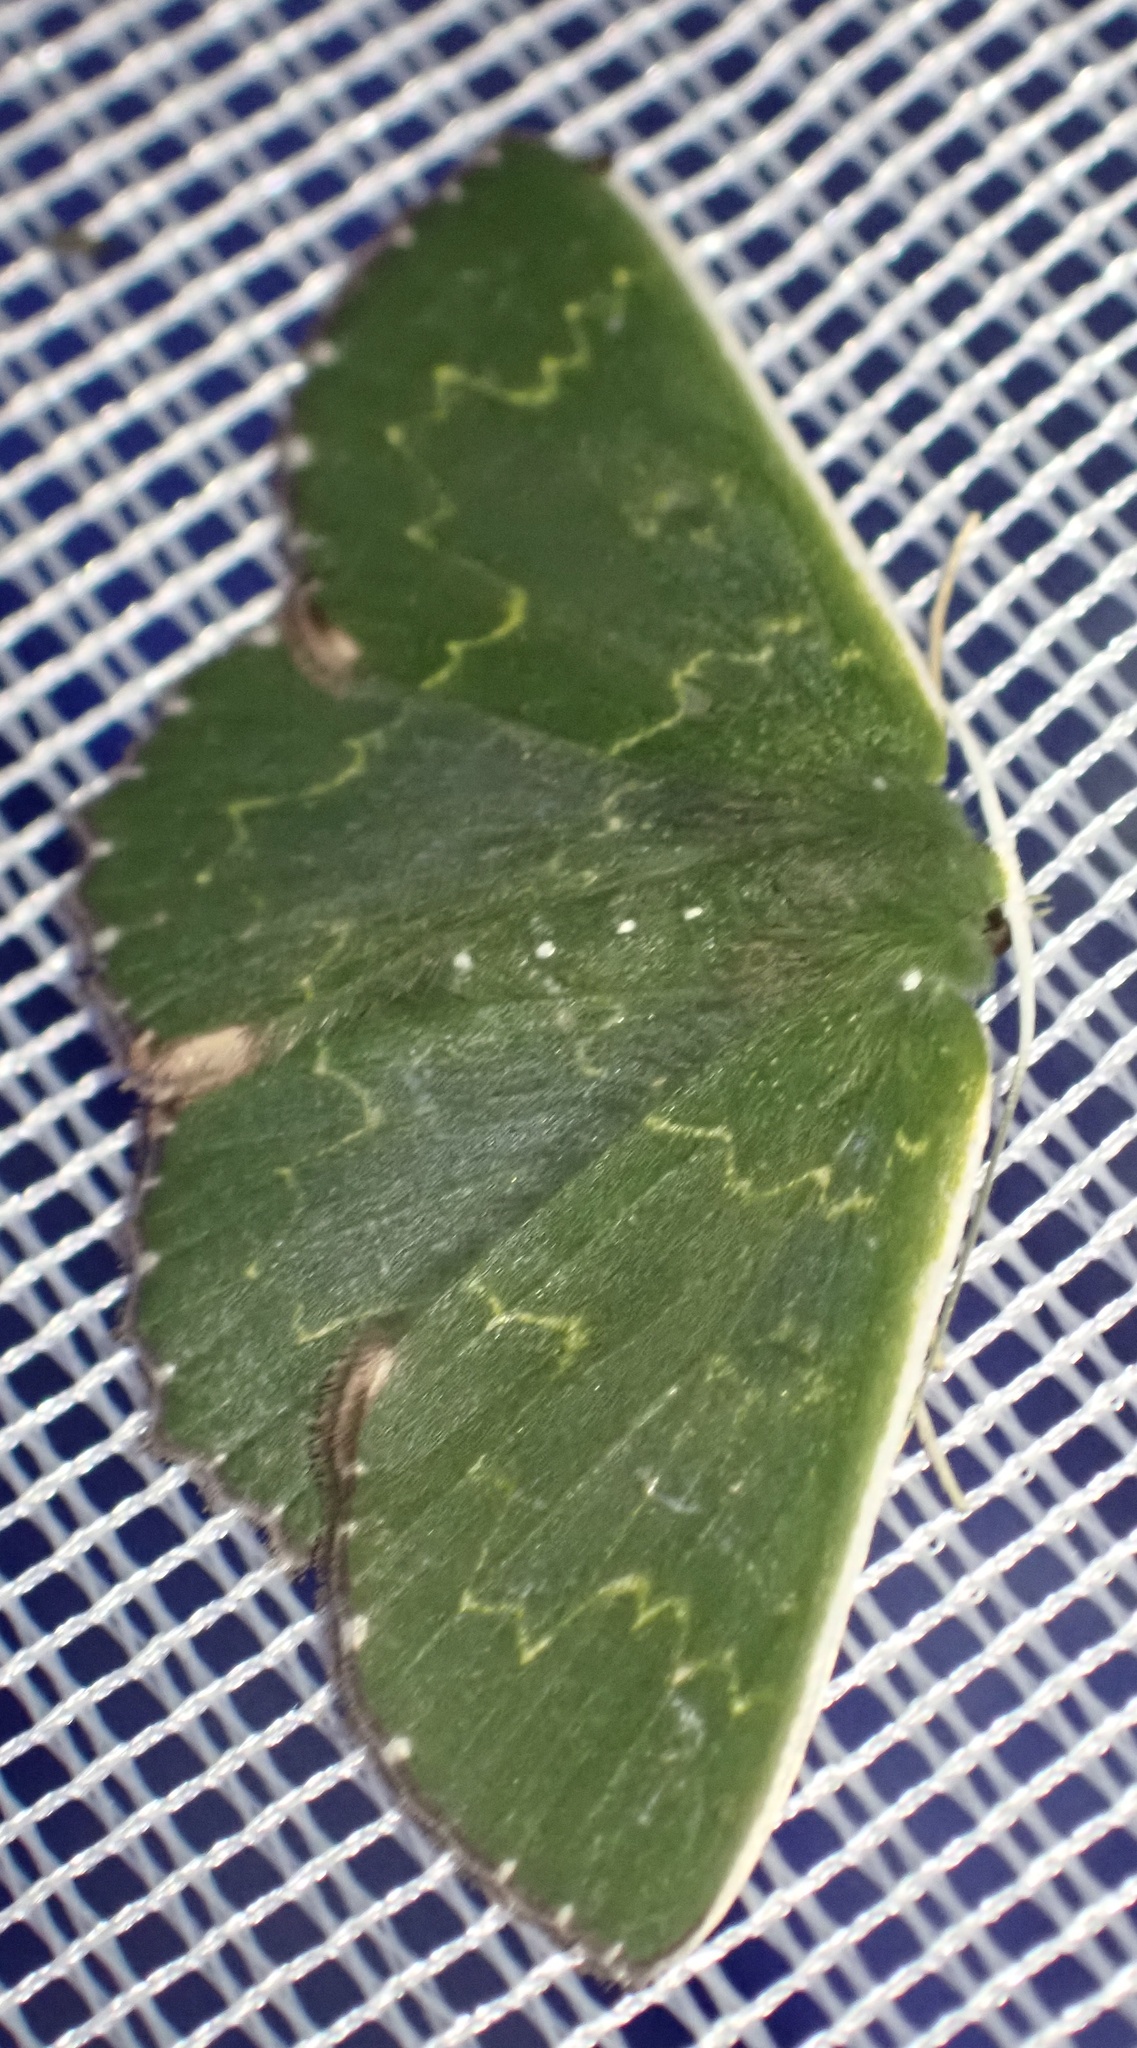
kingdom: Animalia
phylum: Arthropoda
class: Insecta
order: Lepidoptera
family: Geometridae
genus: Prasinocyma
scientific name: Prasinocyma
